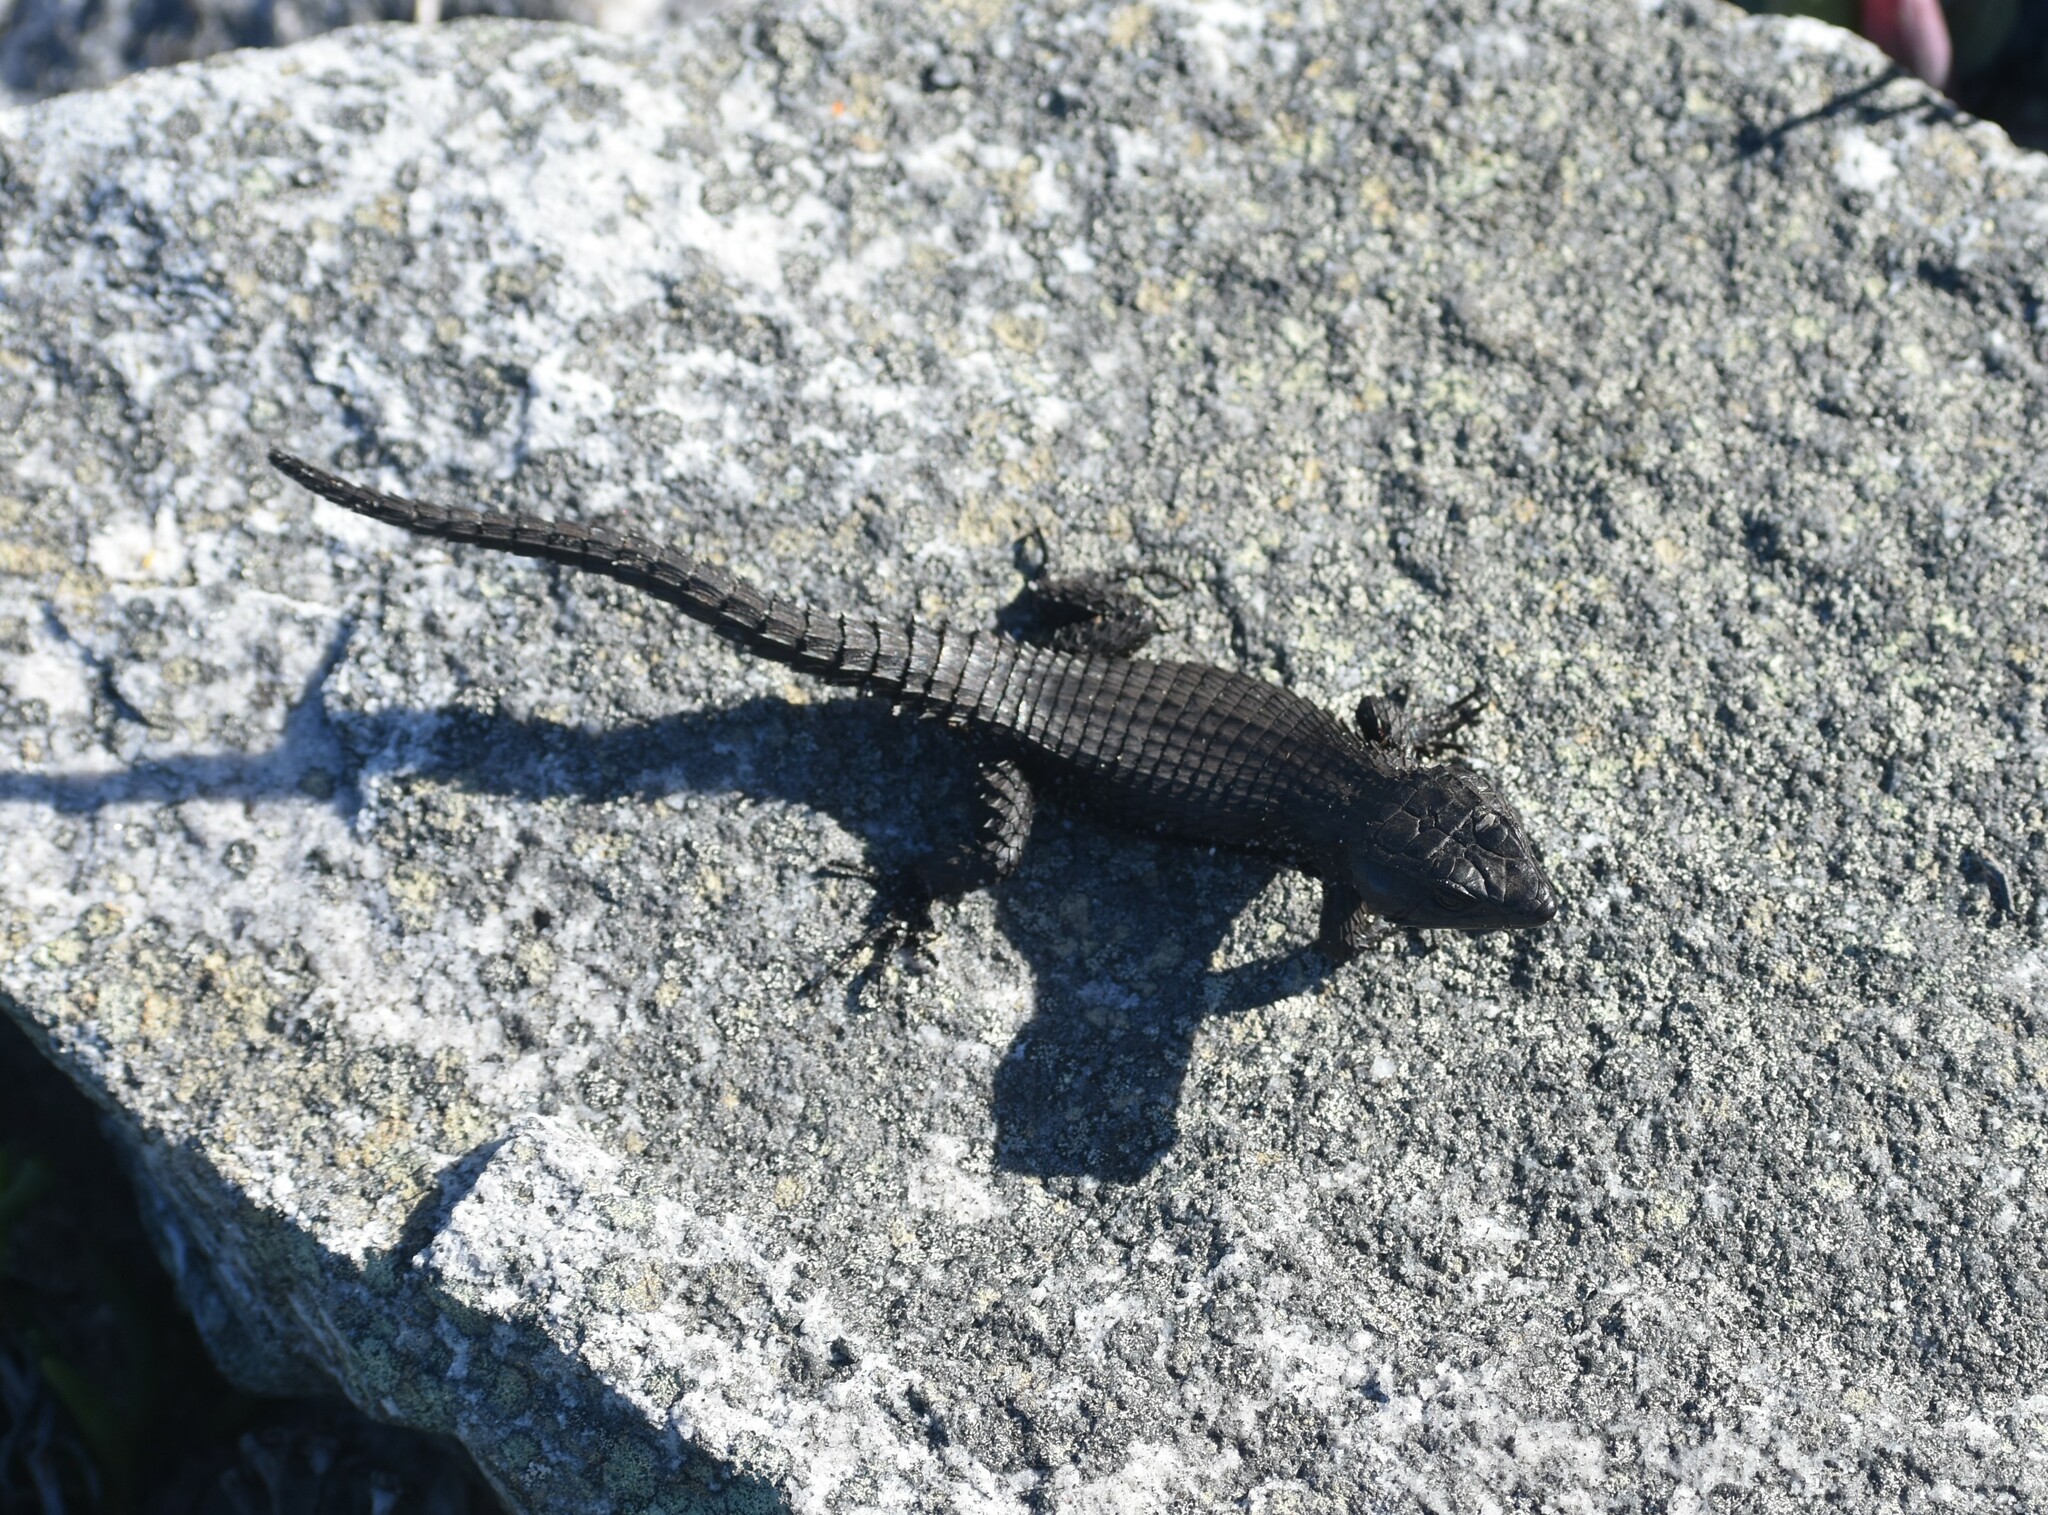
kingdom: Animalia
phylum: Chordata
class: Squamata
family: Cordylidae
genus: Cordylus
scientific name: Cordylus niger
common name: Black girdled lizard
